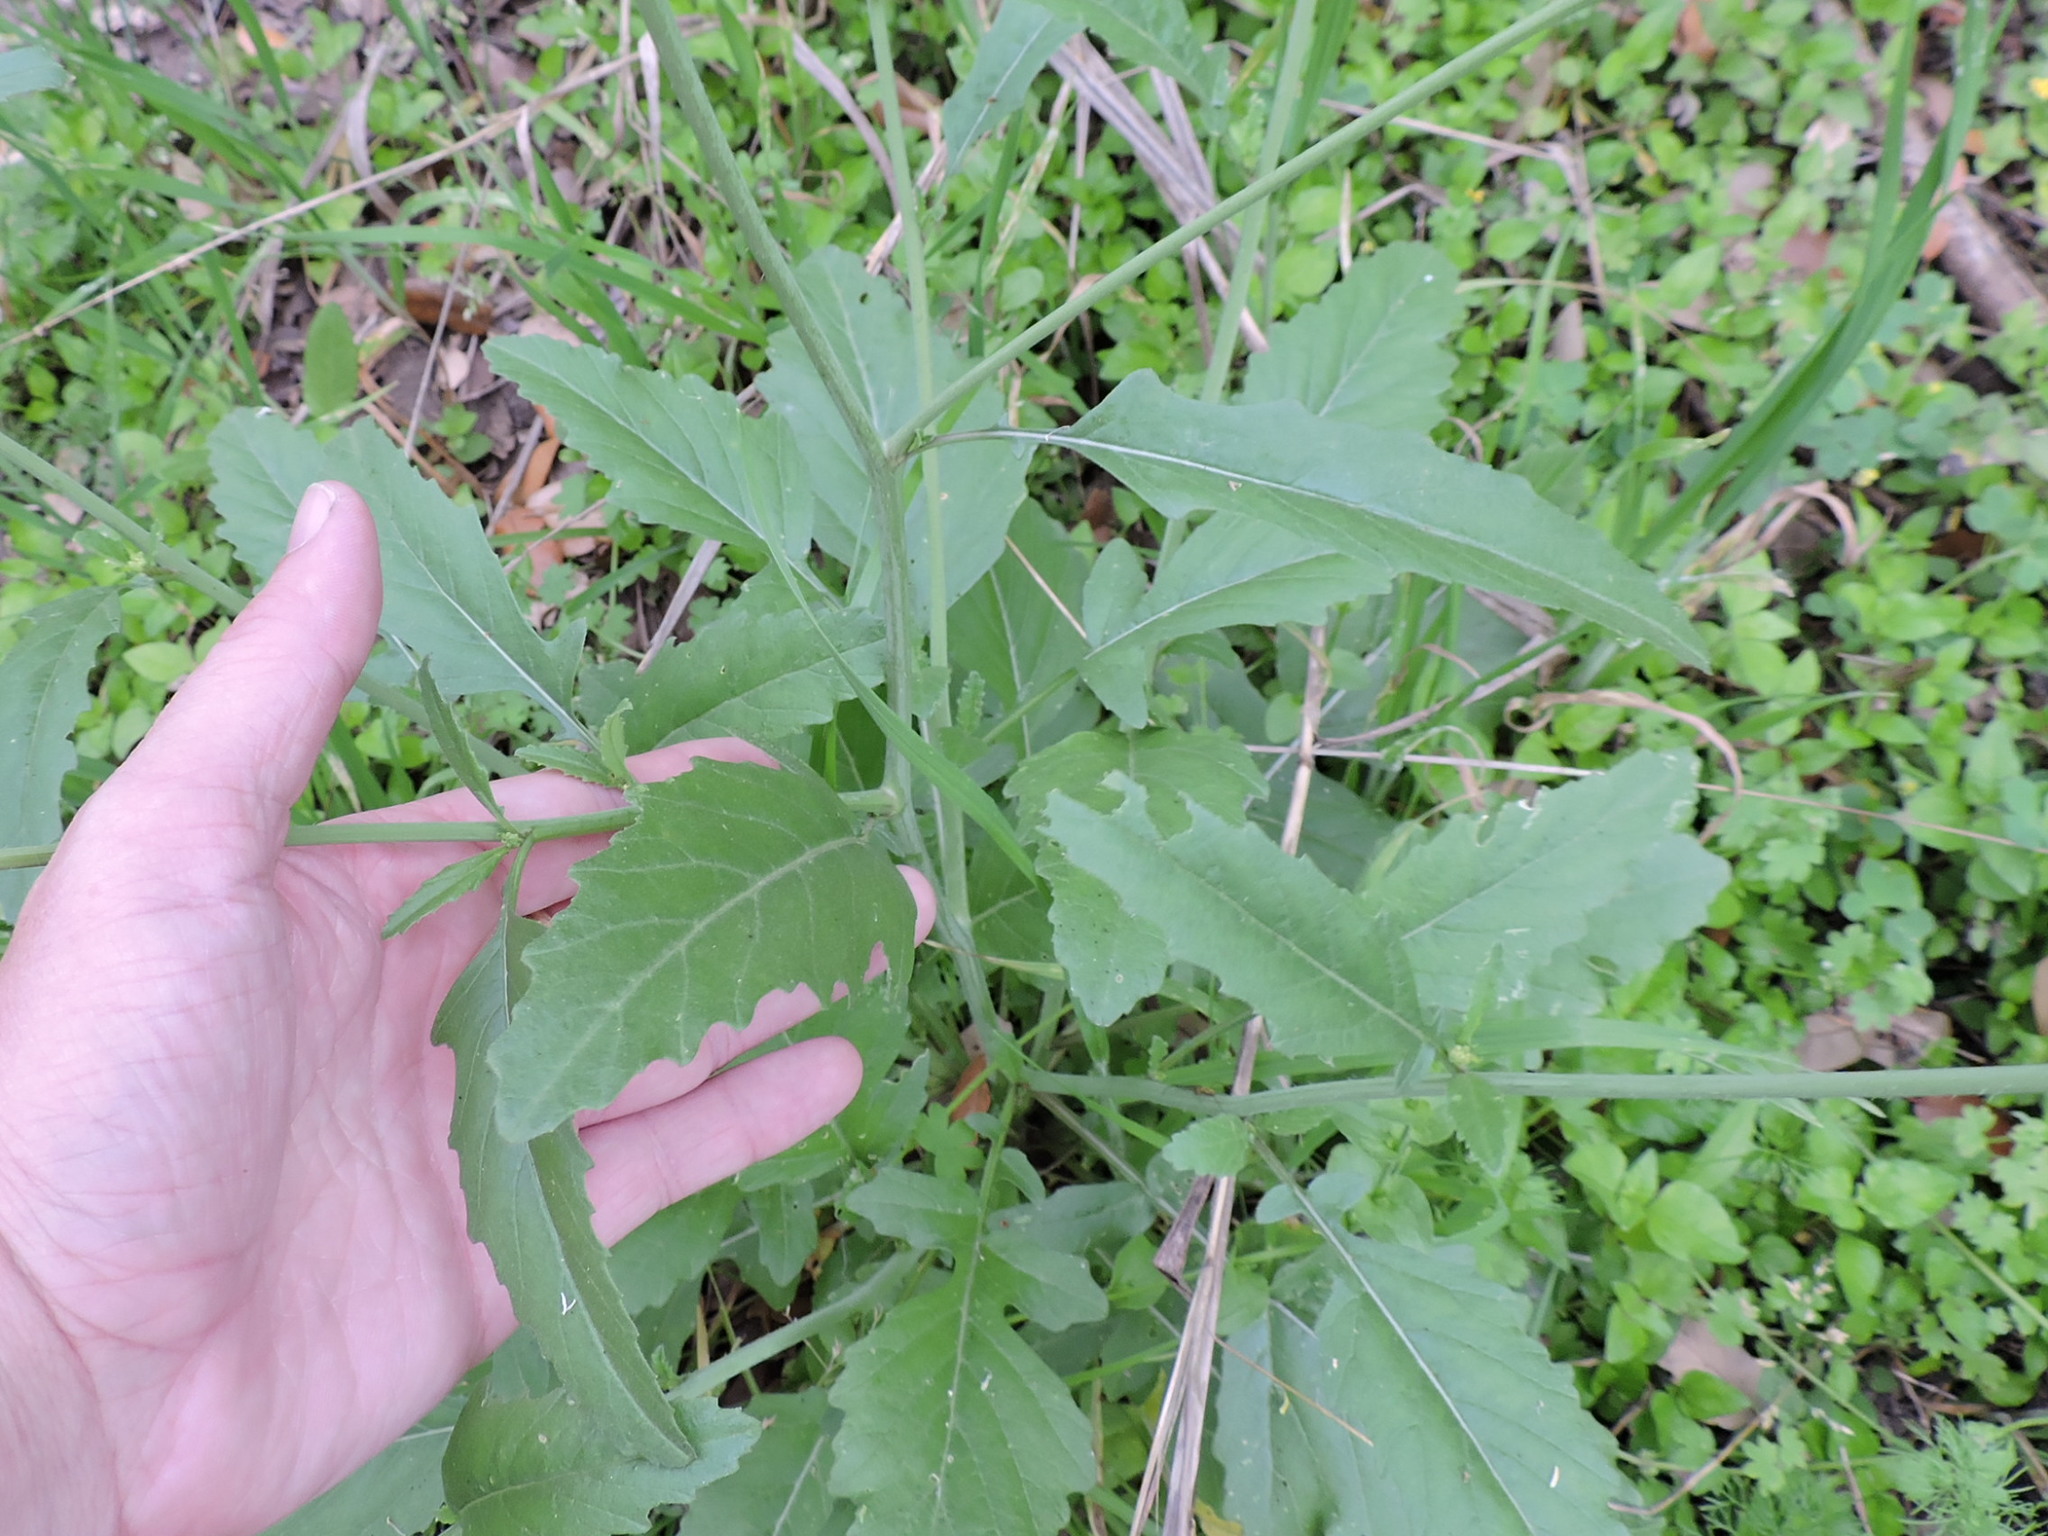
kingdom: Plantae
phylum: Tracheophyta
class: Magnoliopsida
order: Brassicales
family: Brassicaceae
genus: Brassica
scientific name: Brassica nigra
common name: Black mustard
